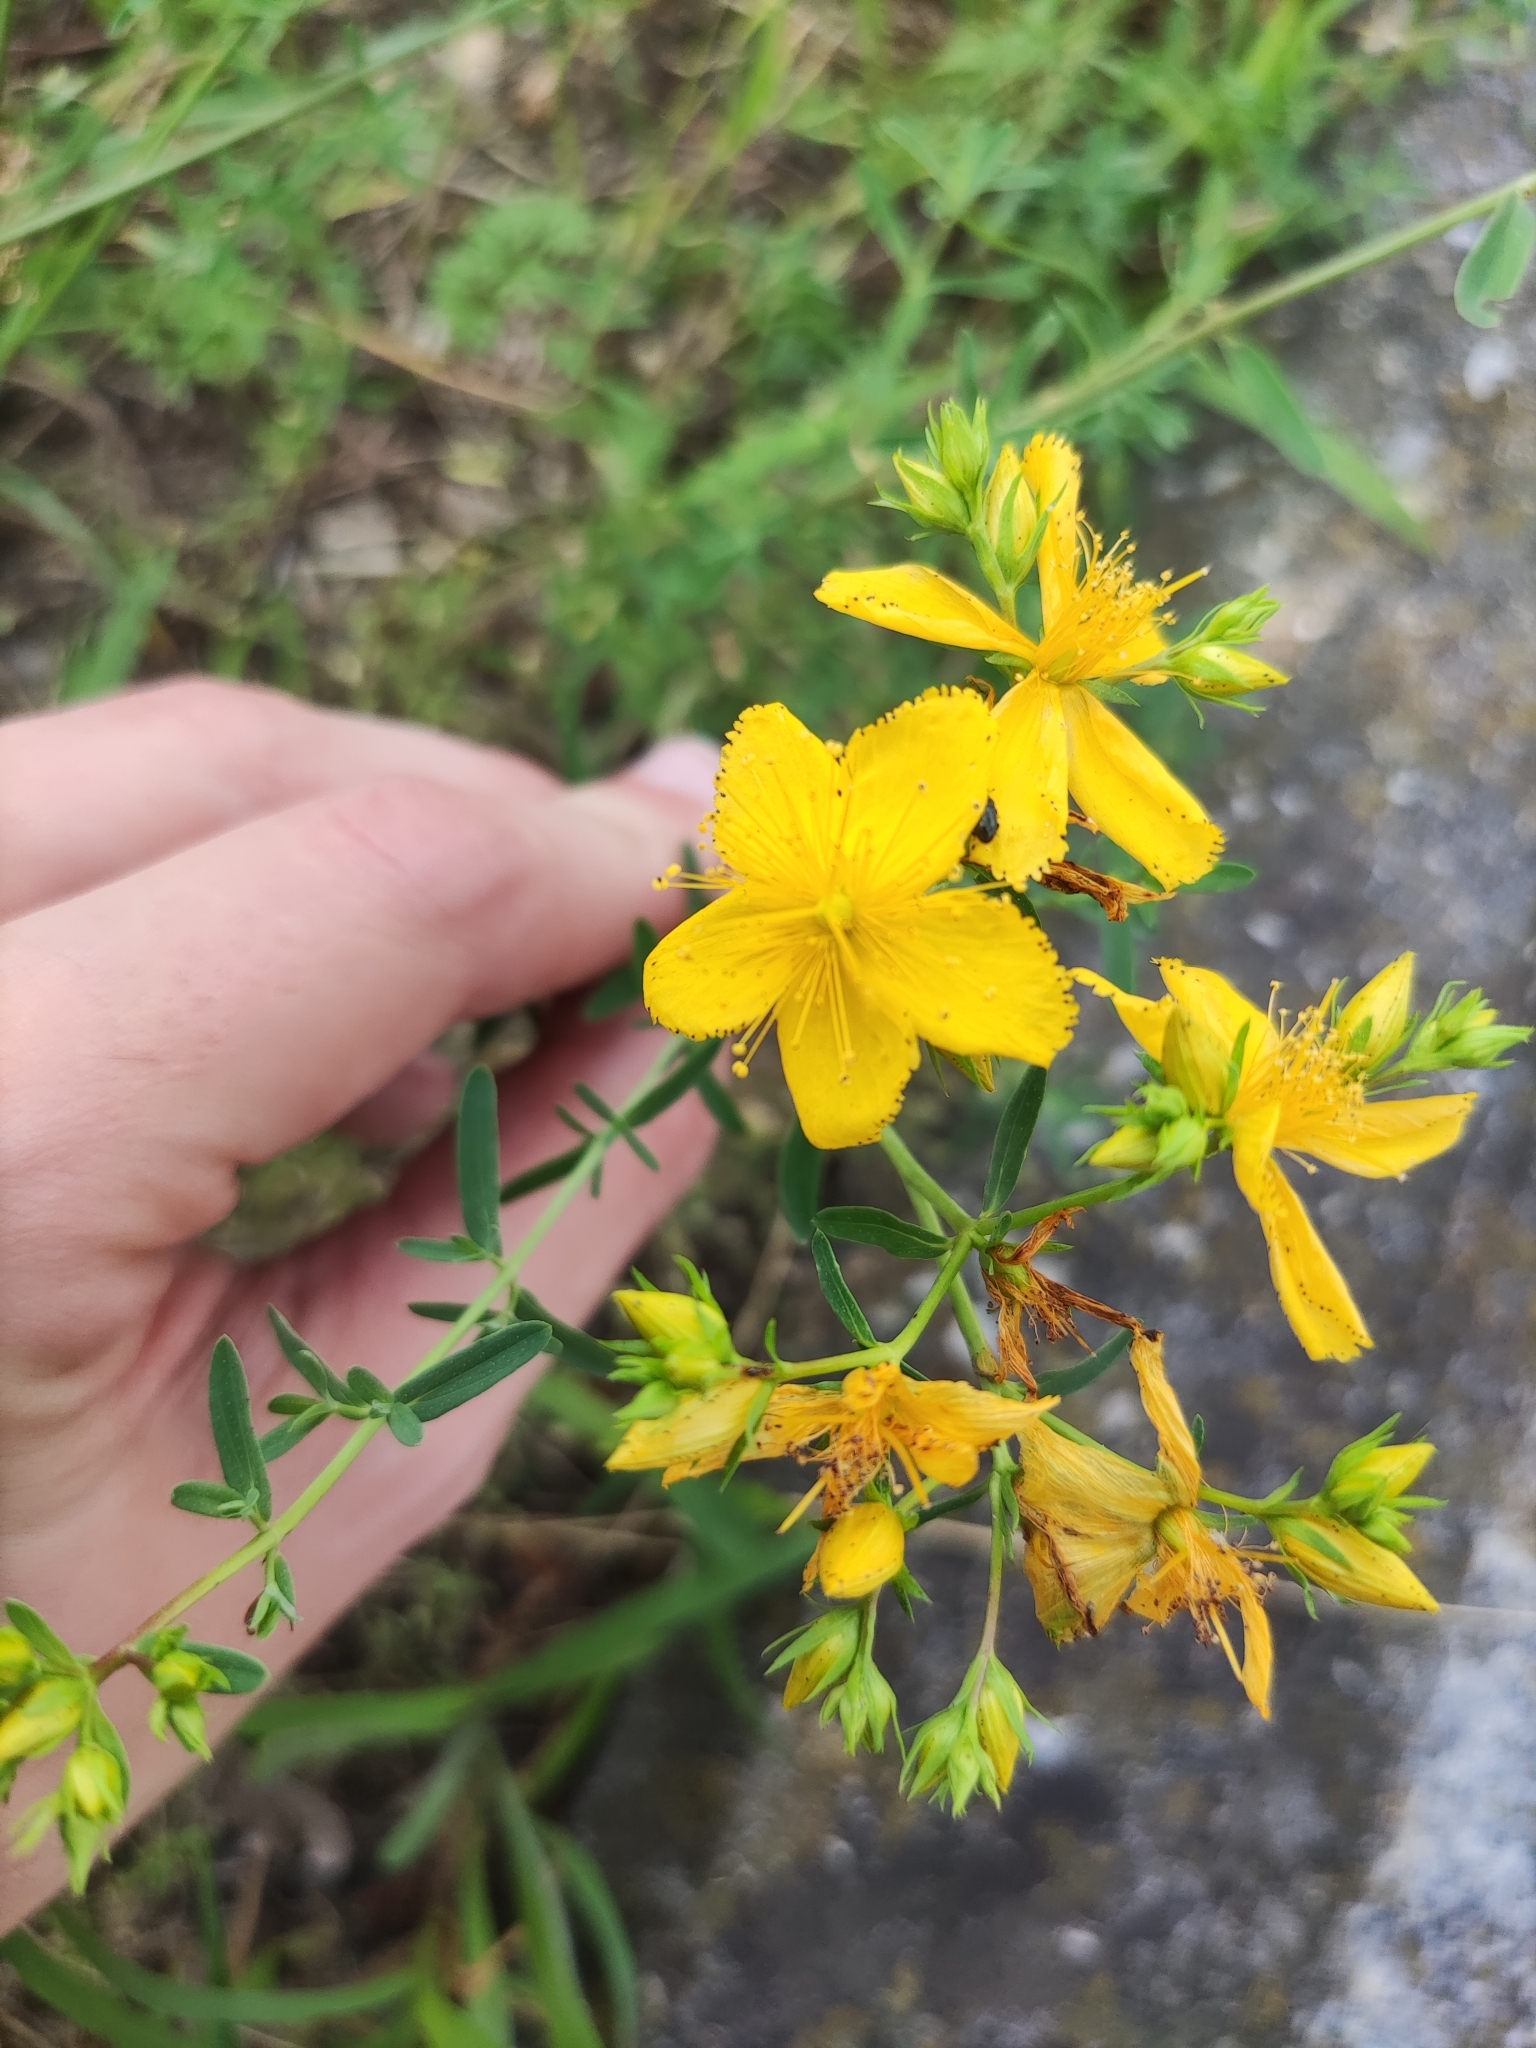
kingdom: Plantae
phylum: Tracheophyta
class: Magnoliopsida
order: Malpighiales
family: Hypericaceae
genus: Hypericum
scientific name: Hypericum perforatum
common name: Common st. johnswort
